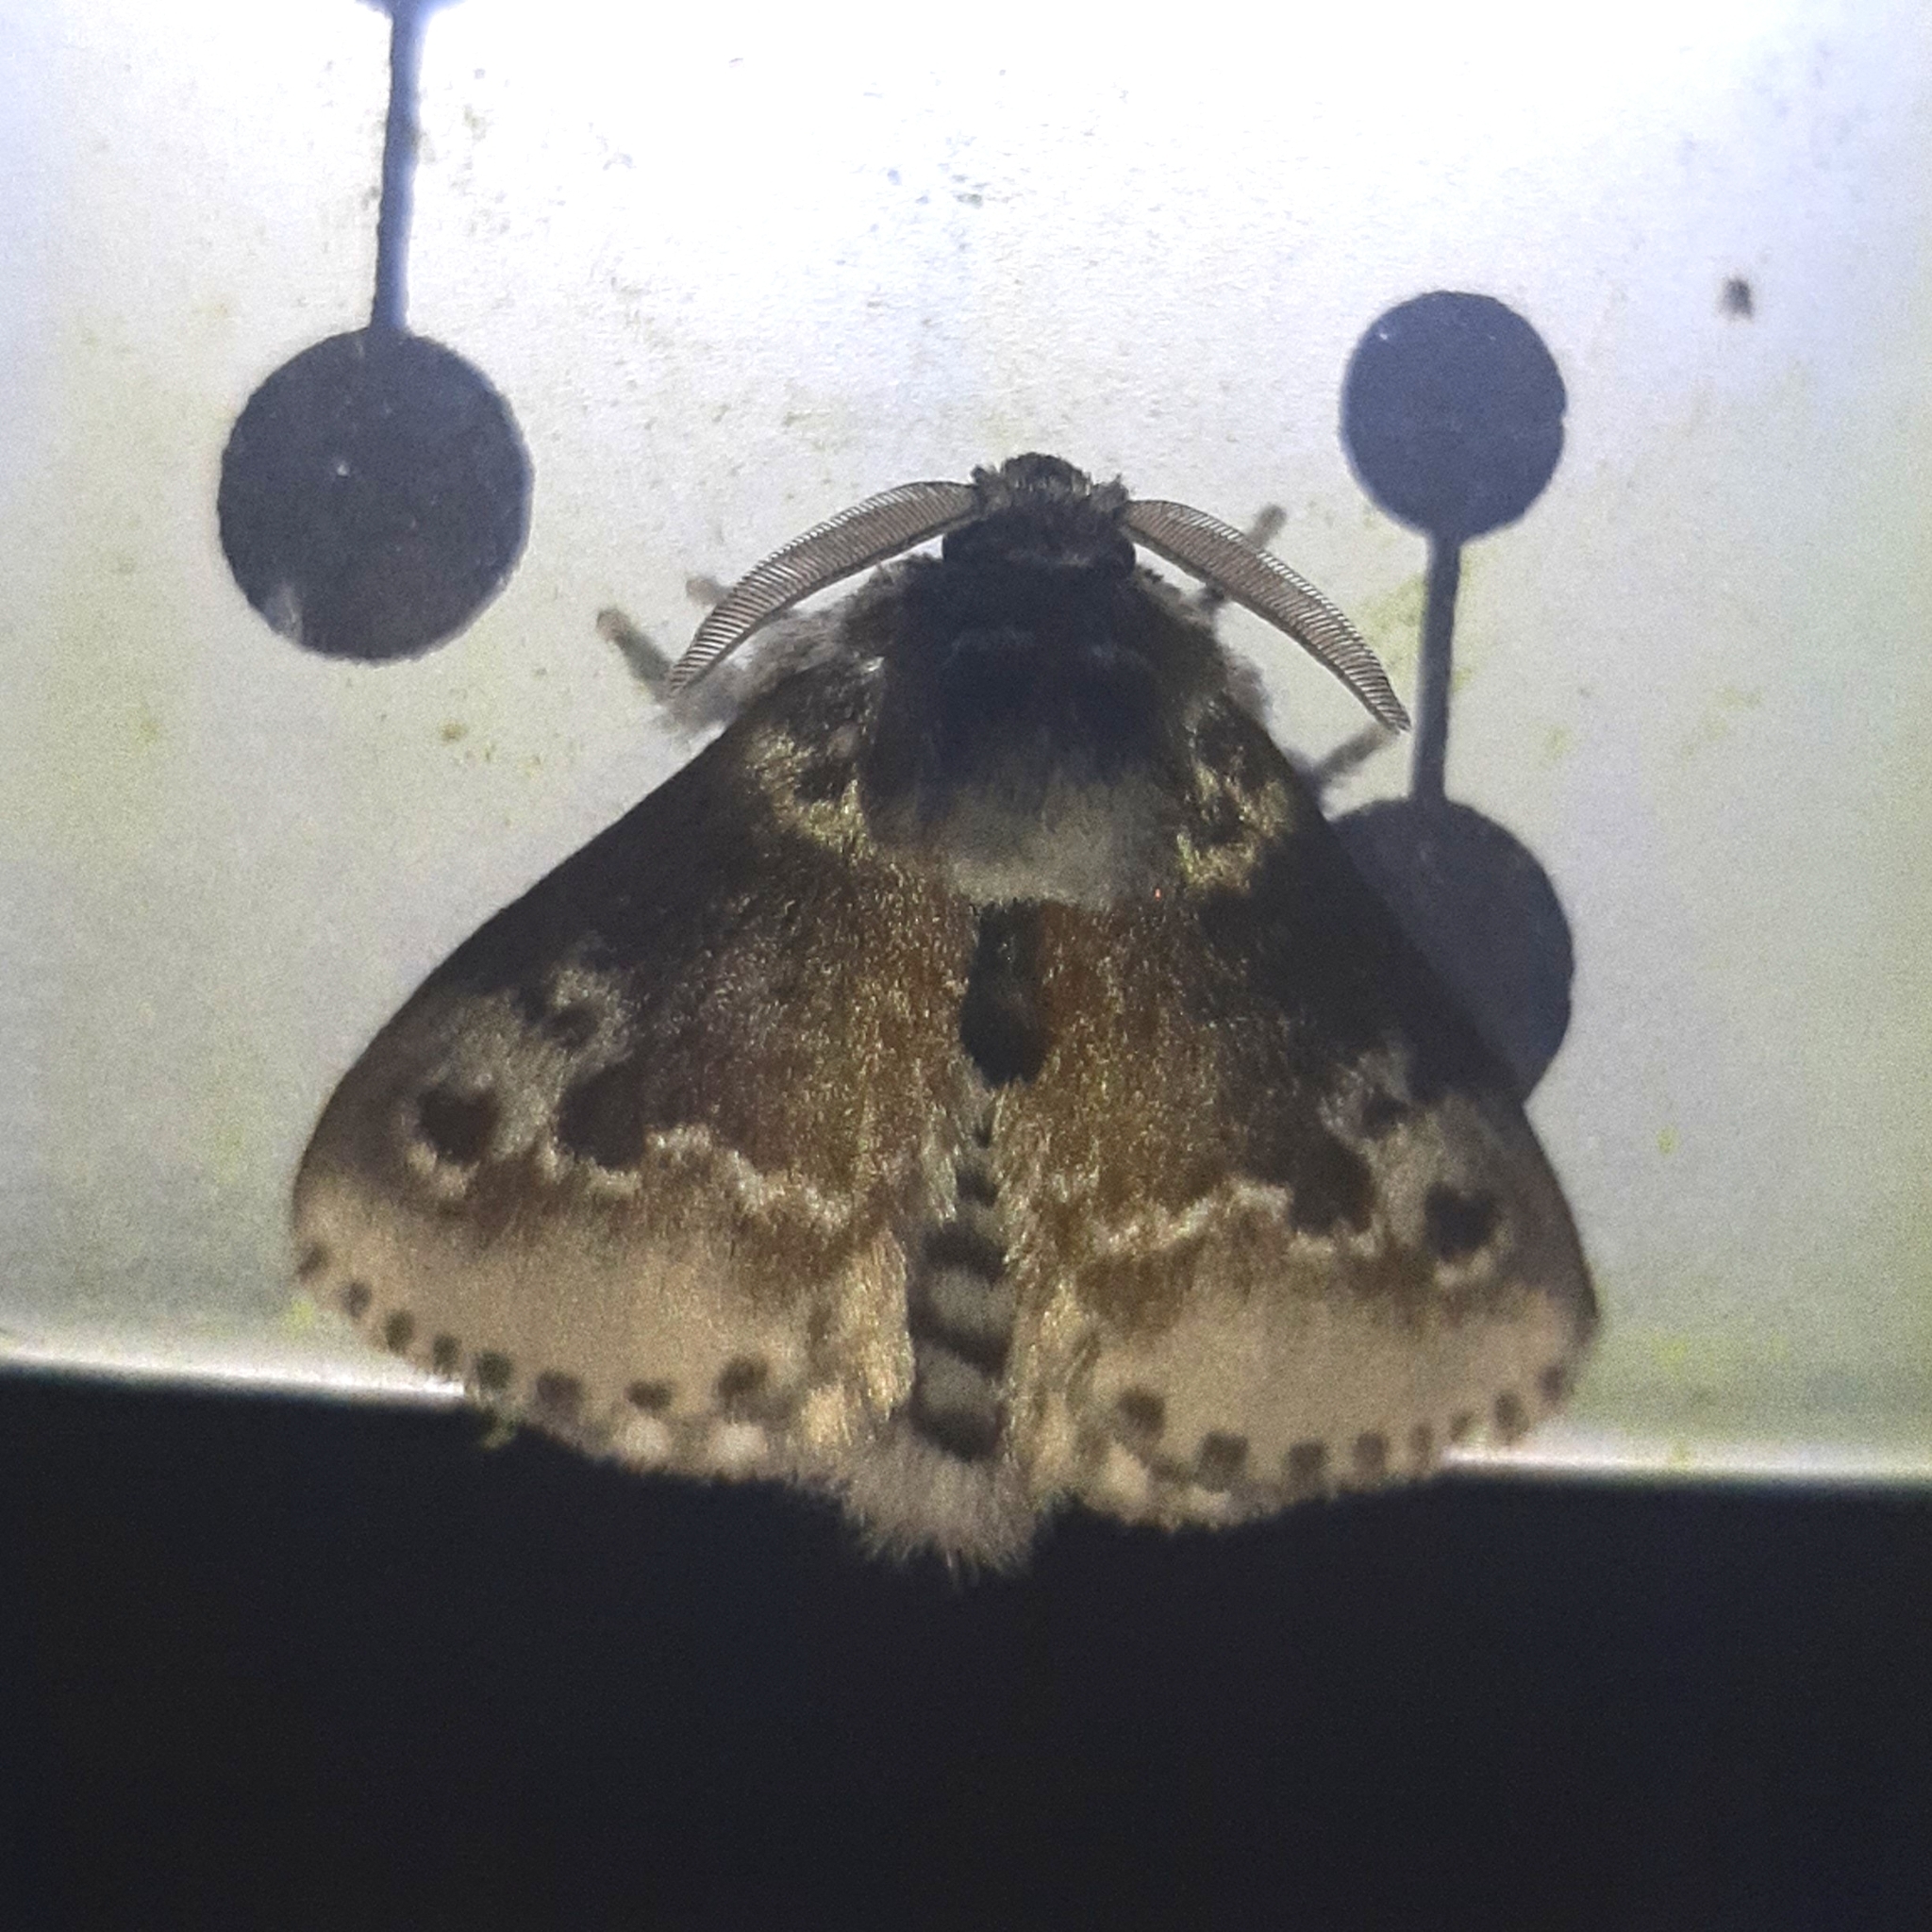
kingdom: Animalia
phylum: Arthropoda
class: Insecta
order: Lepidoptera
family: Megalopygidae
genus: Podalia
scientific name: Podalia habitus
